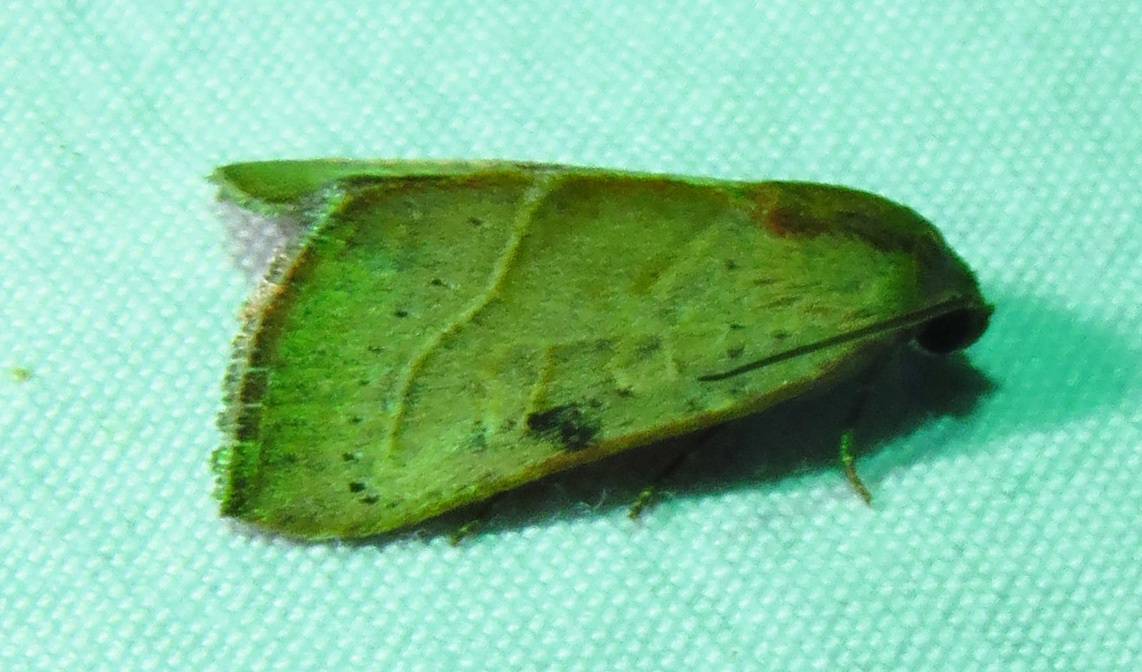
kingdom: Animalia
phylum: Arthropoda
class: Insecta
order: Lepidoptera
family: Noctuidae
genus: Galgula
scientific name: Galgula partita
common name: Wedgeling
